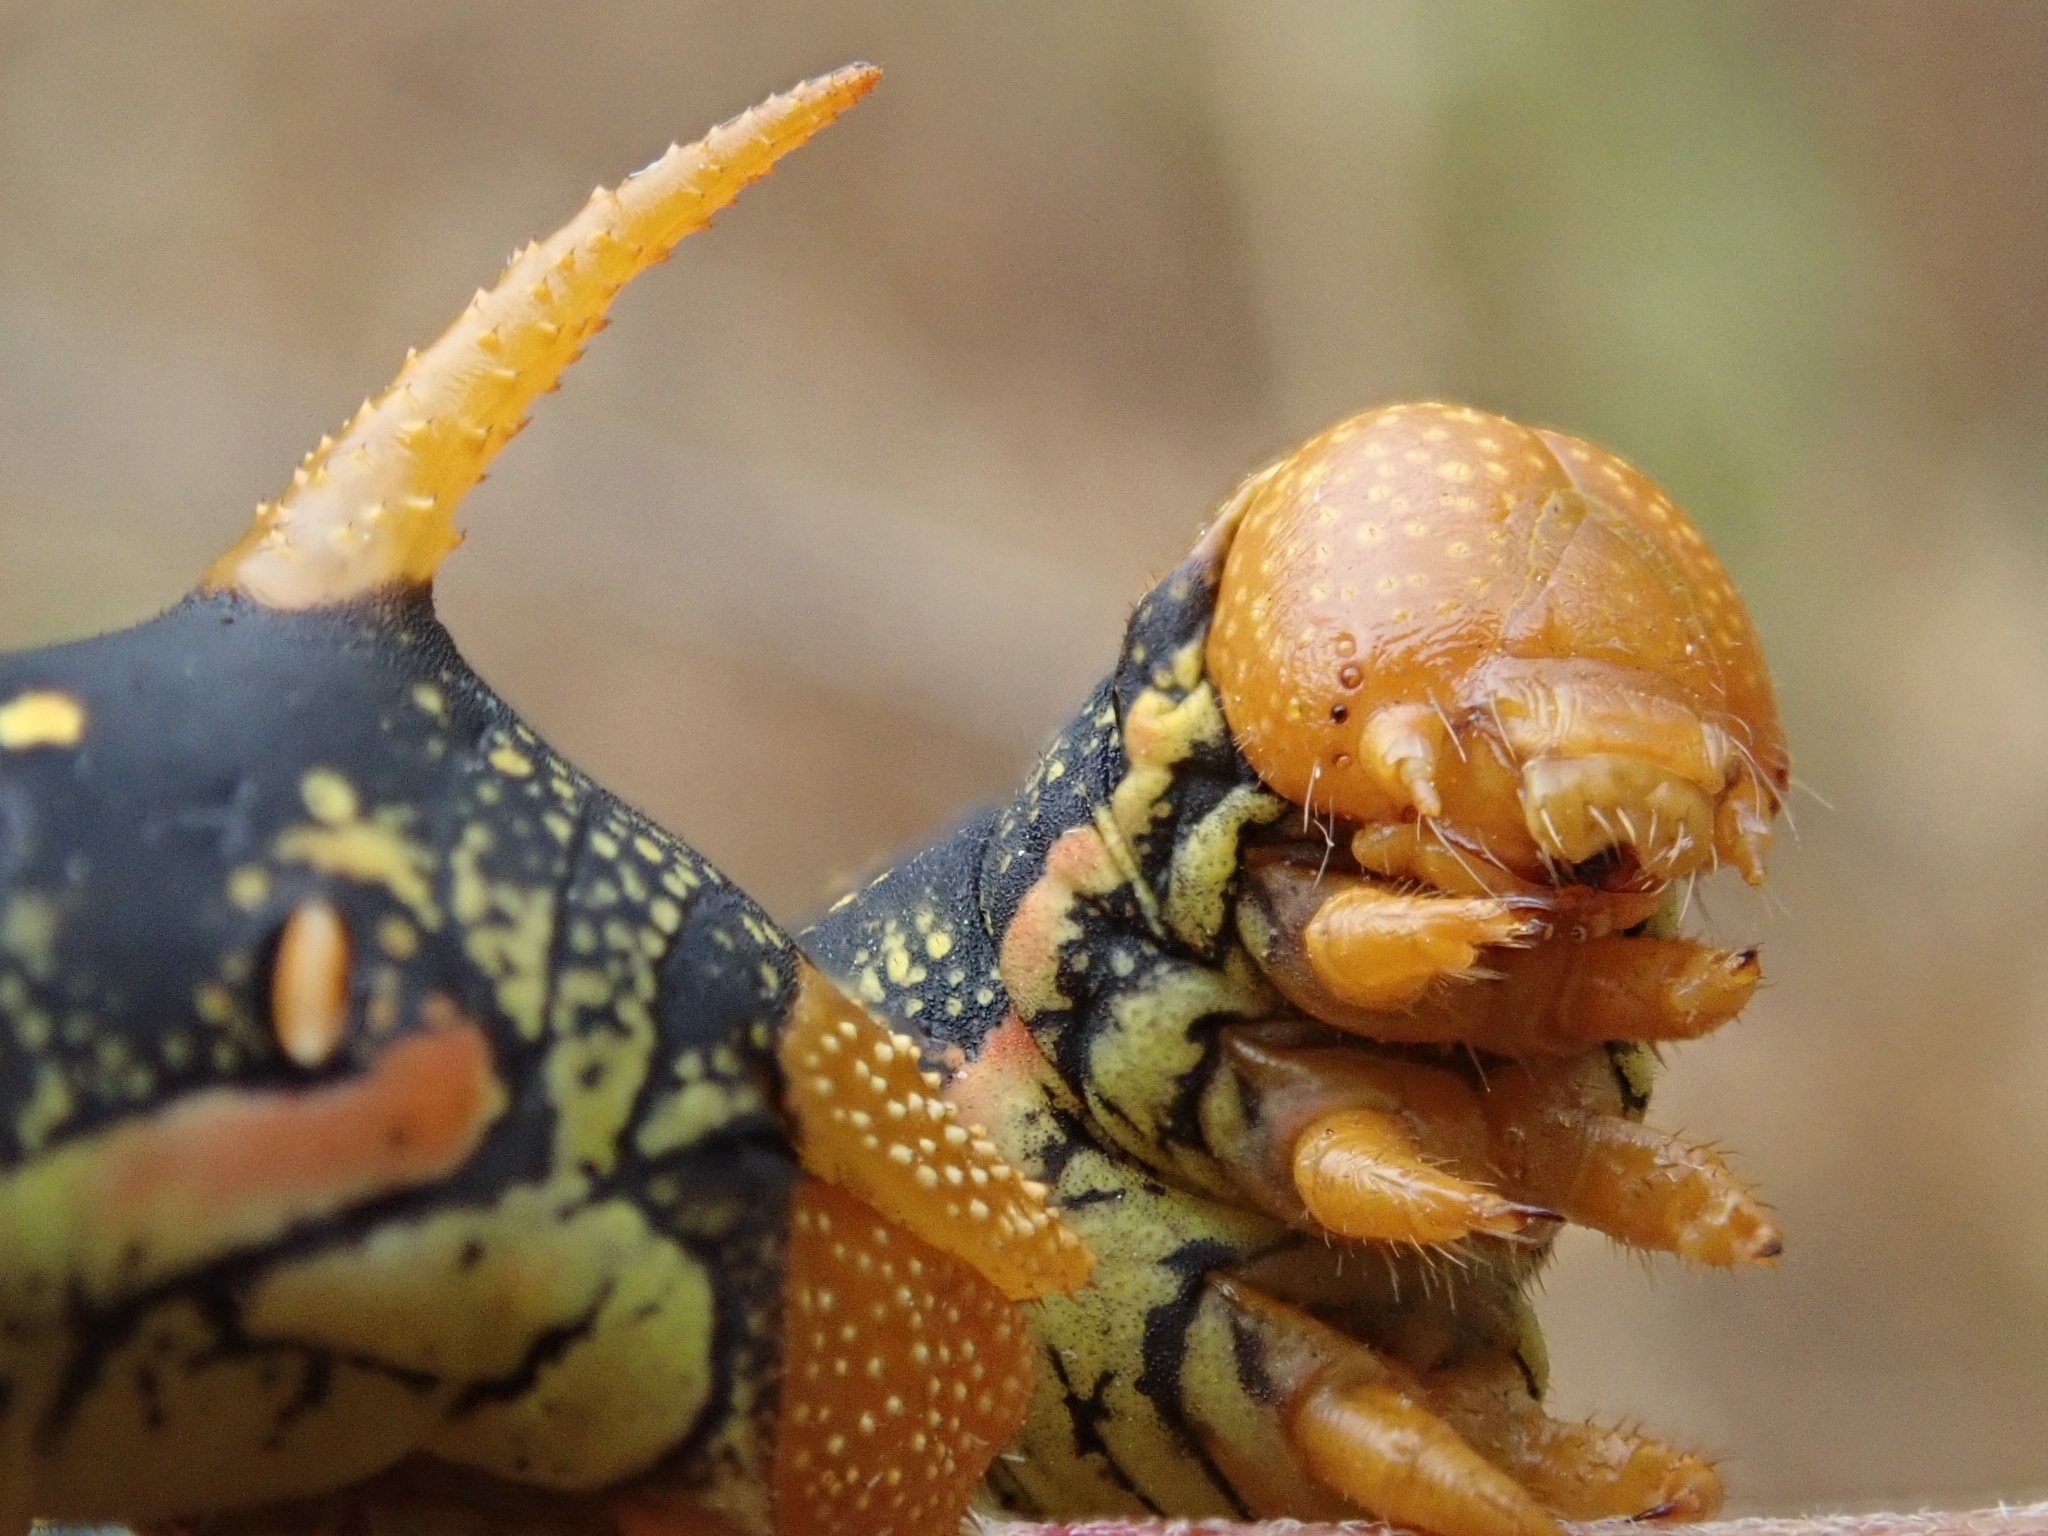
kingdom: Animalia
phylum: Arthropoda
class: Insecta
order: Lepidoptera
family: Sphingidae
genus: Hyles
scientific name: Hyles lineata
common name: White-lined sphinx
